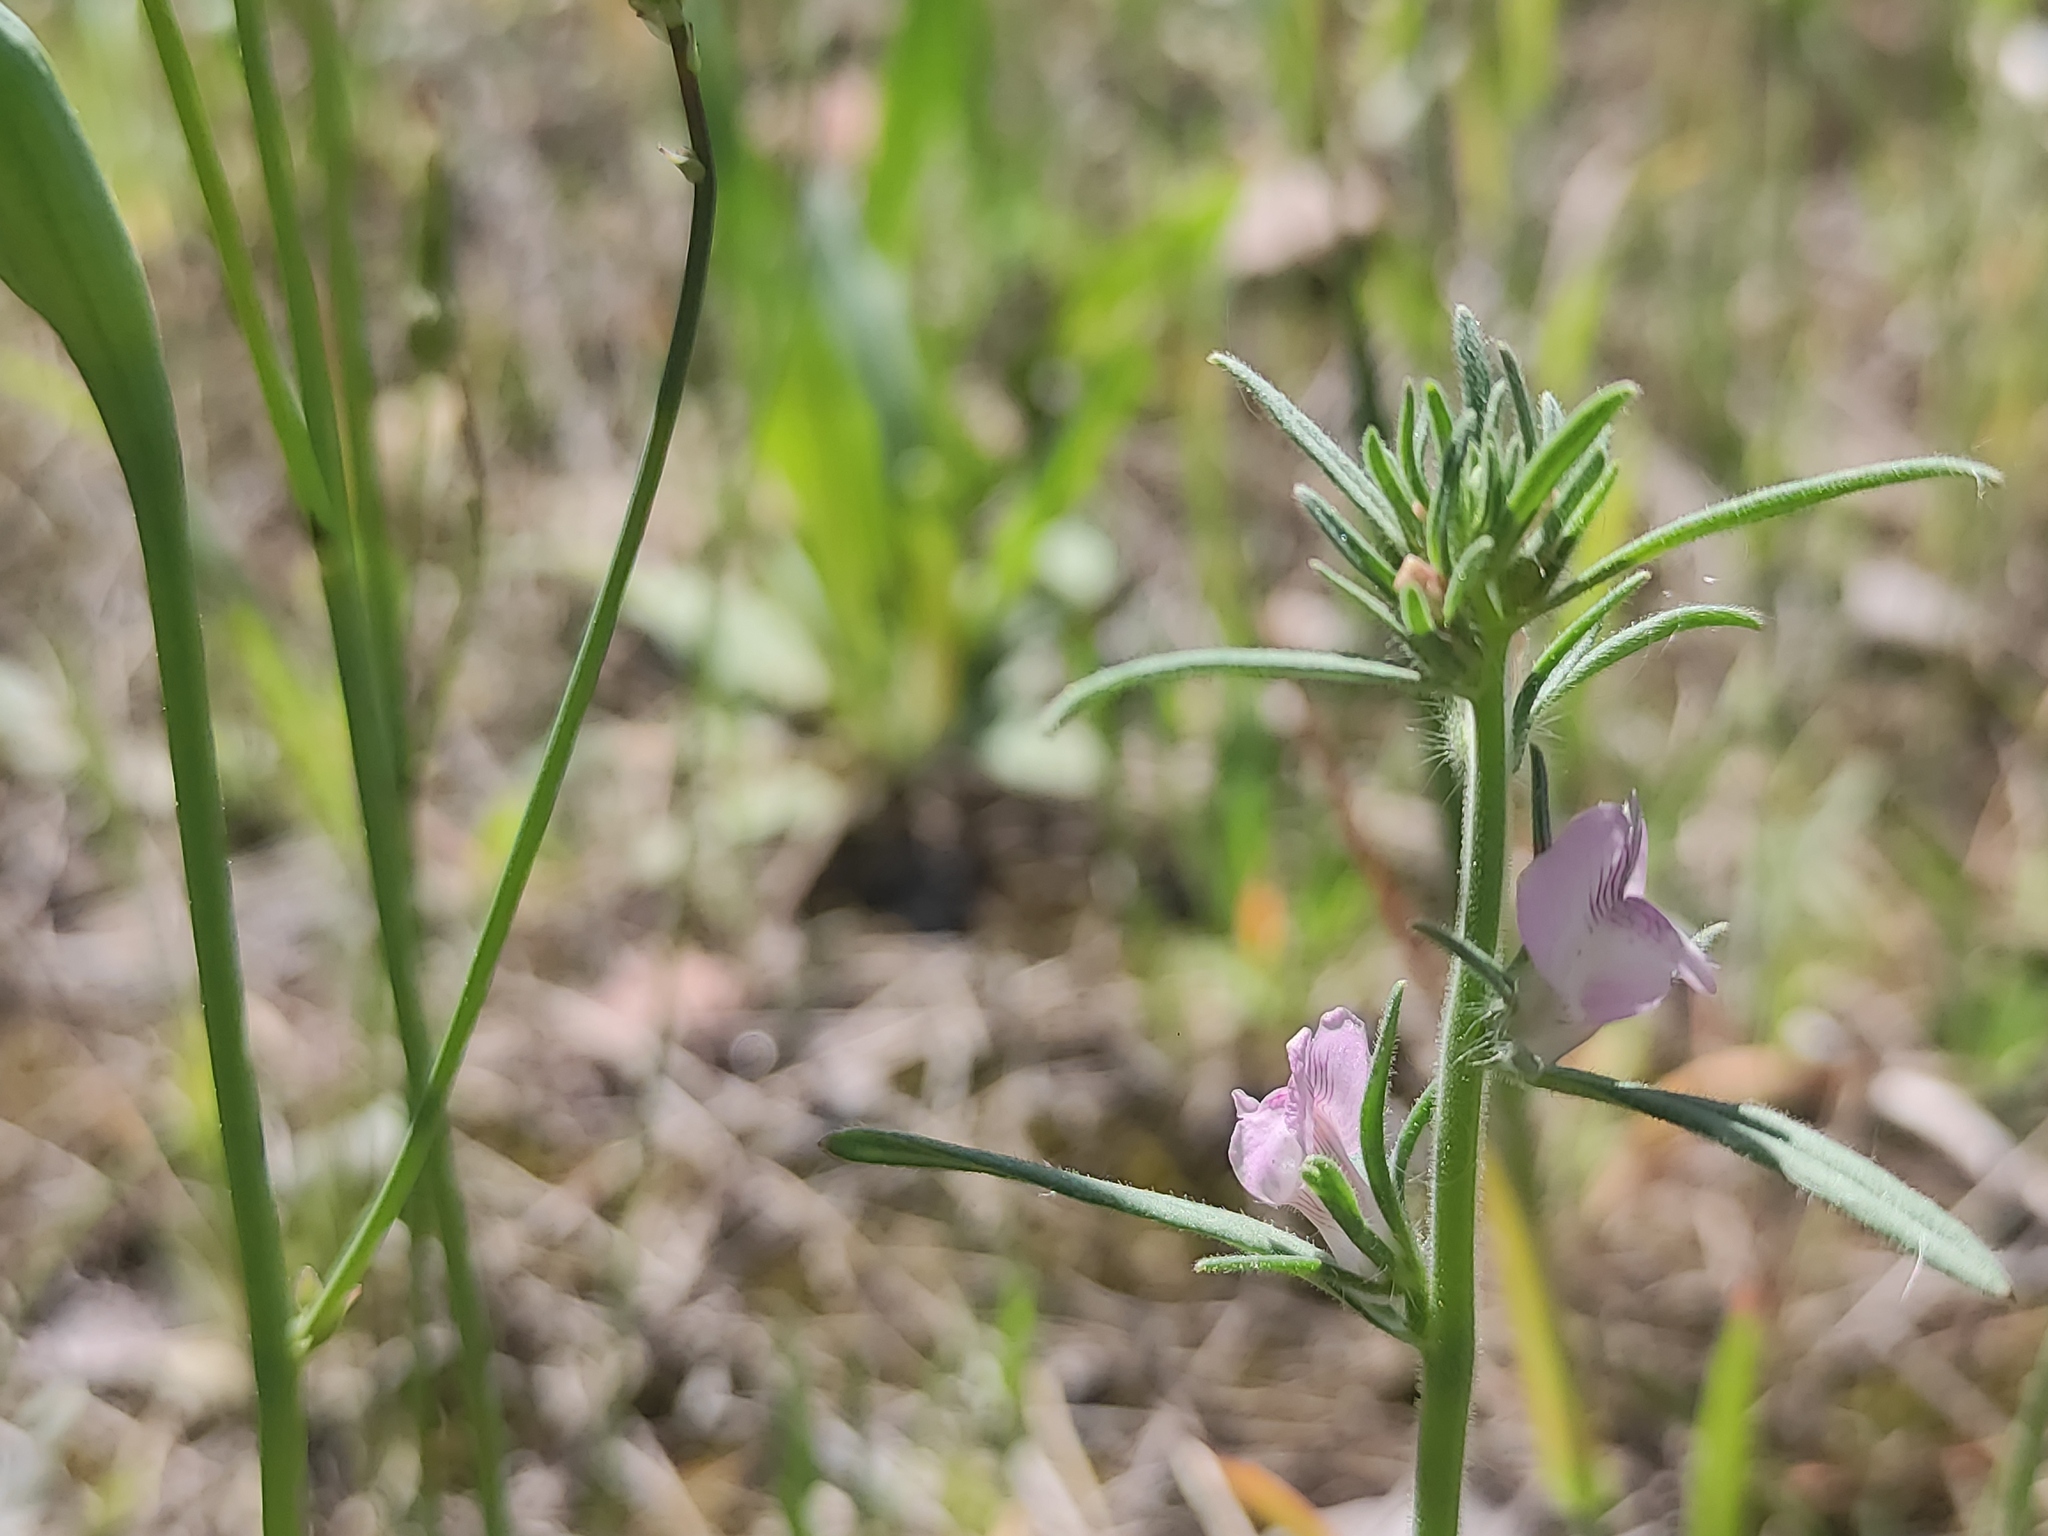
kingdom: Plantae
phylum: Tracheophyta
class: Magnoliopsida
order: Lamiales
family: Plantaginaceae
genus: Misopates
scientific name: Misopates orontium
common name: Weasel's-snout
